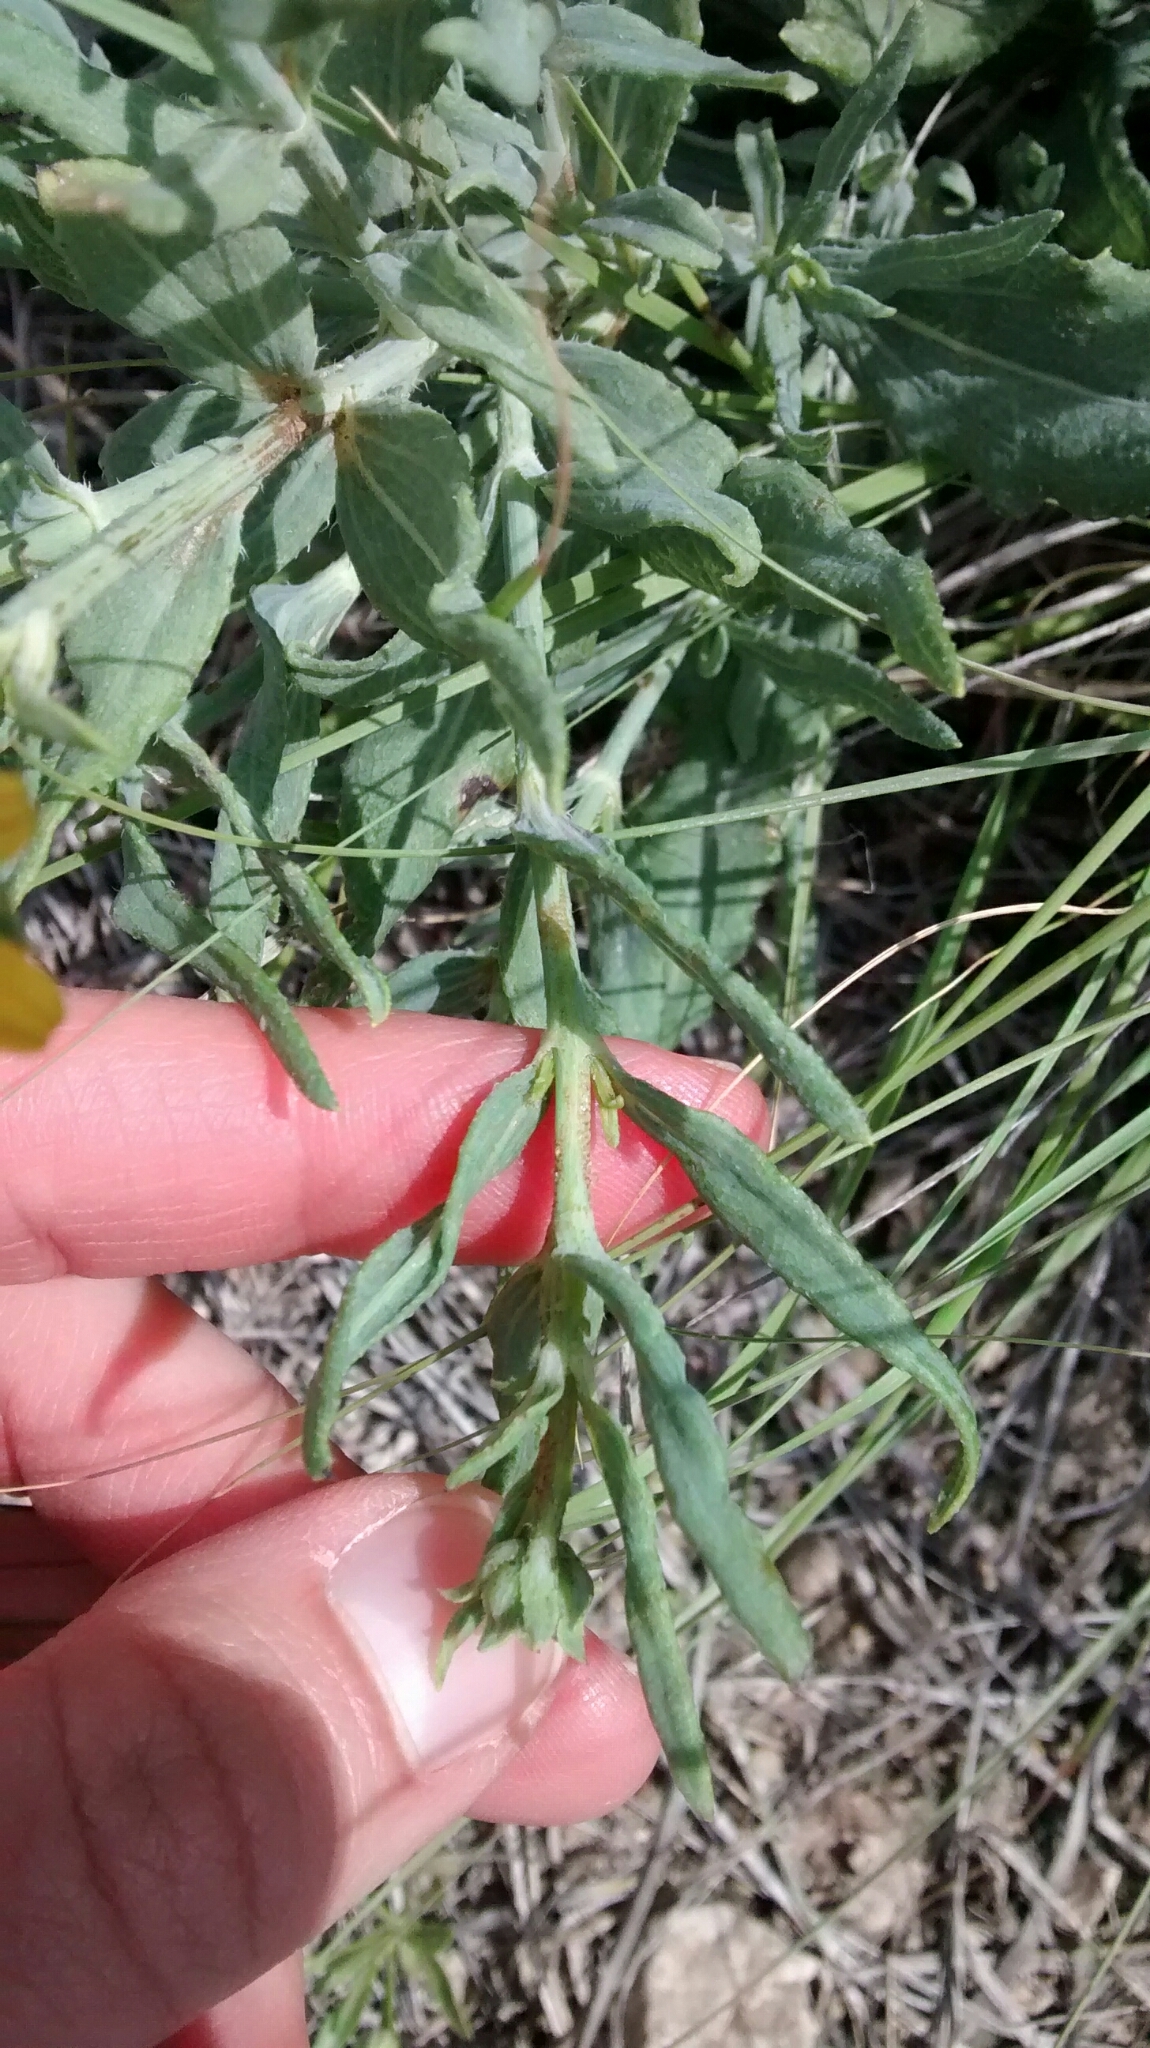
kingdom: Plantae
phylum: Tracheophyta
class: Magnoliopsida
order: Asterales
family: Asteraceae
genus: Helianthus
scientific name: Helianthus ciliaris
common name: Texas blueweed
